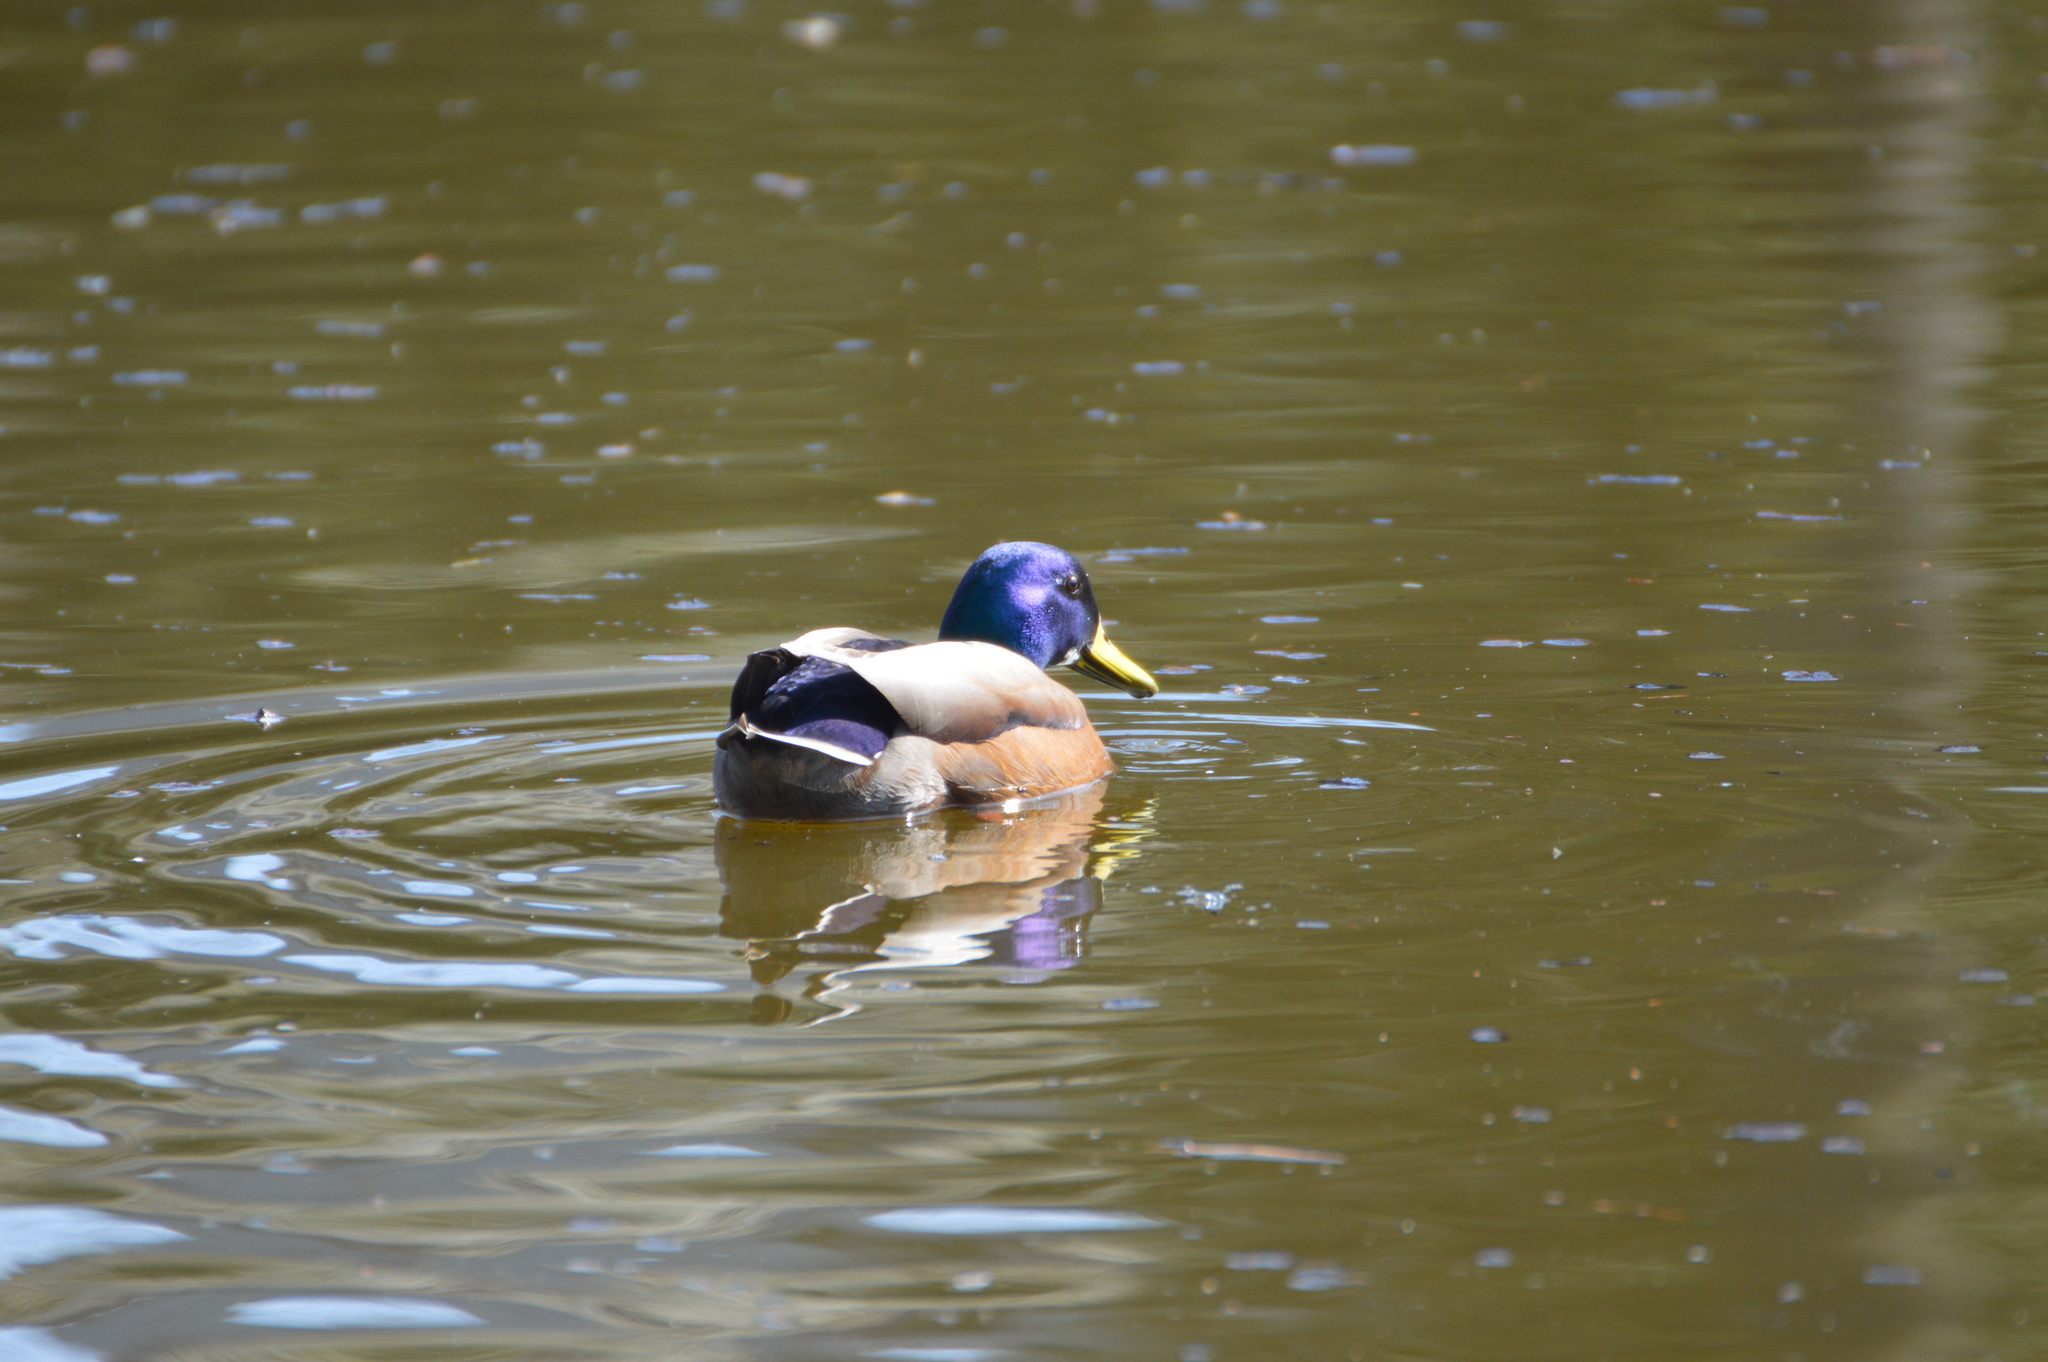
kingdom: Animalia
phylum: Chordata
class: Aves
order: Anseriformes
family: Anatidae
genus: Anas
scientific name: Anas platyrhynchos
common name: Mallard
